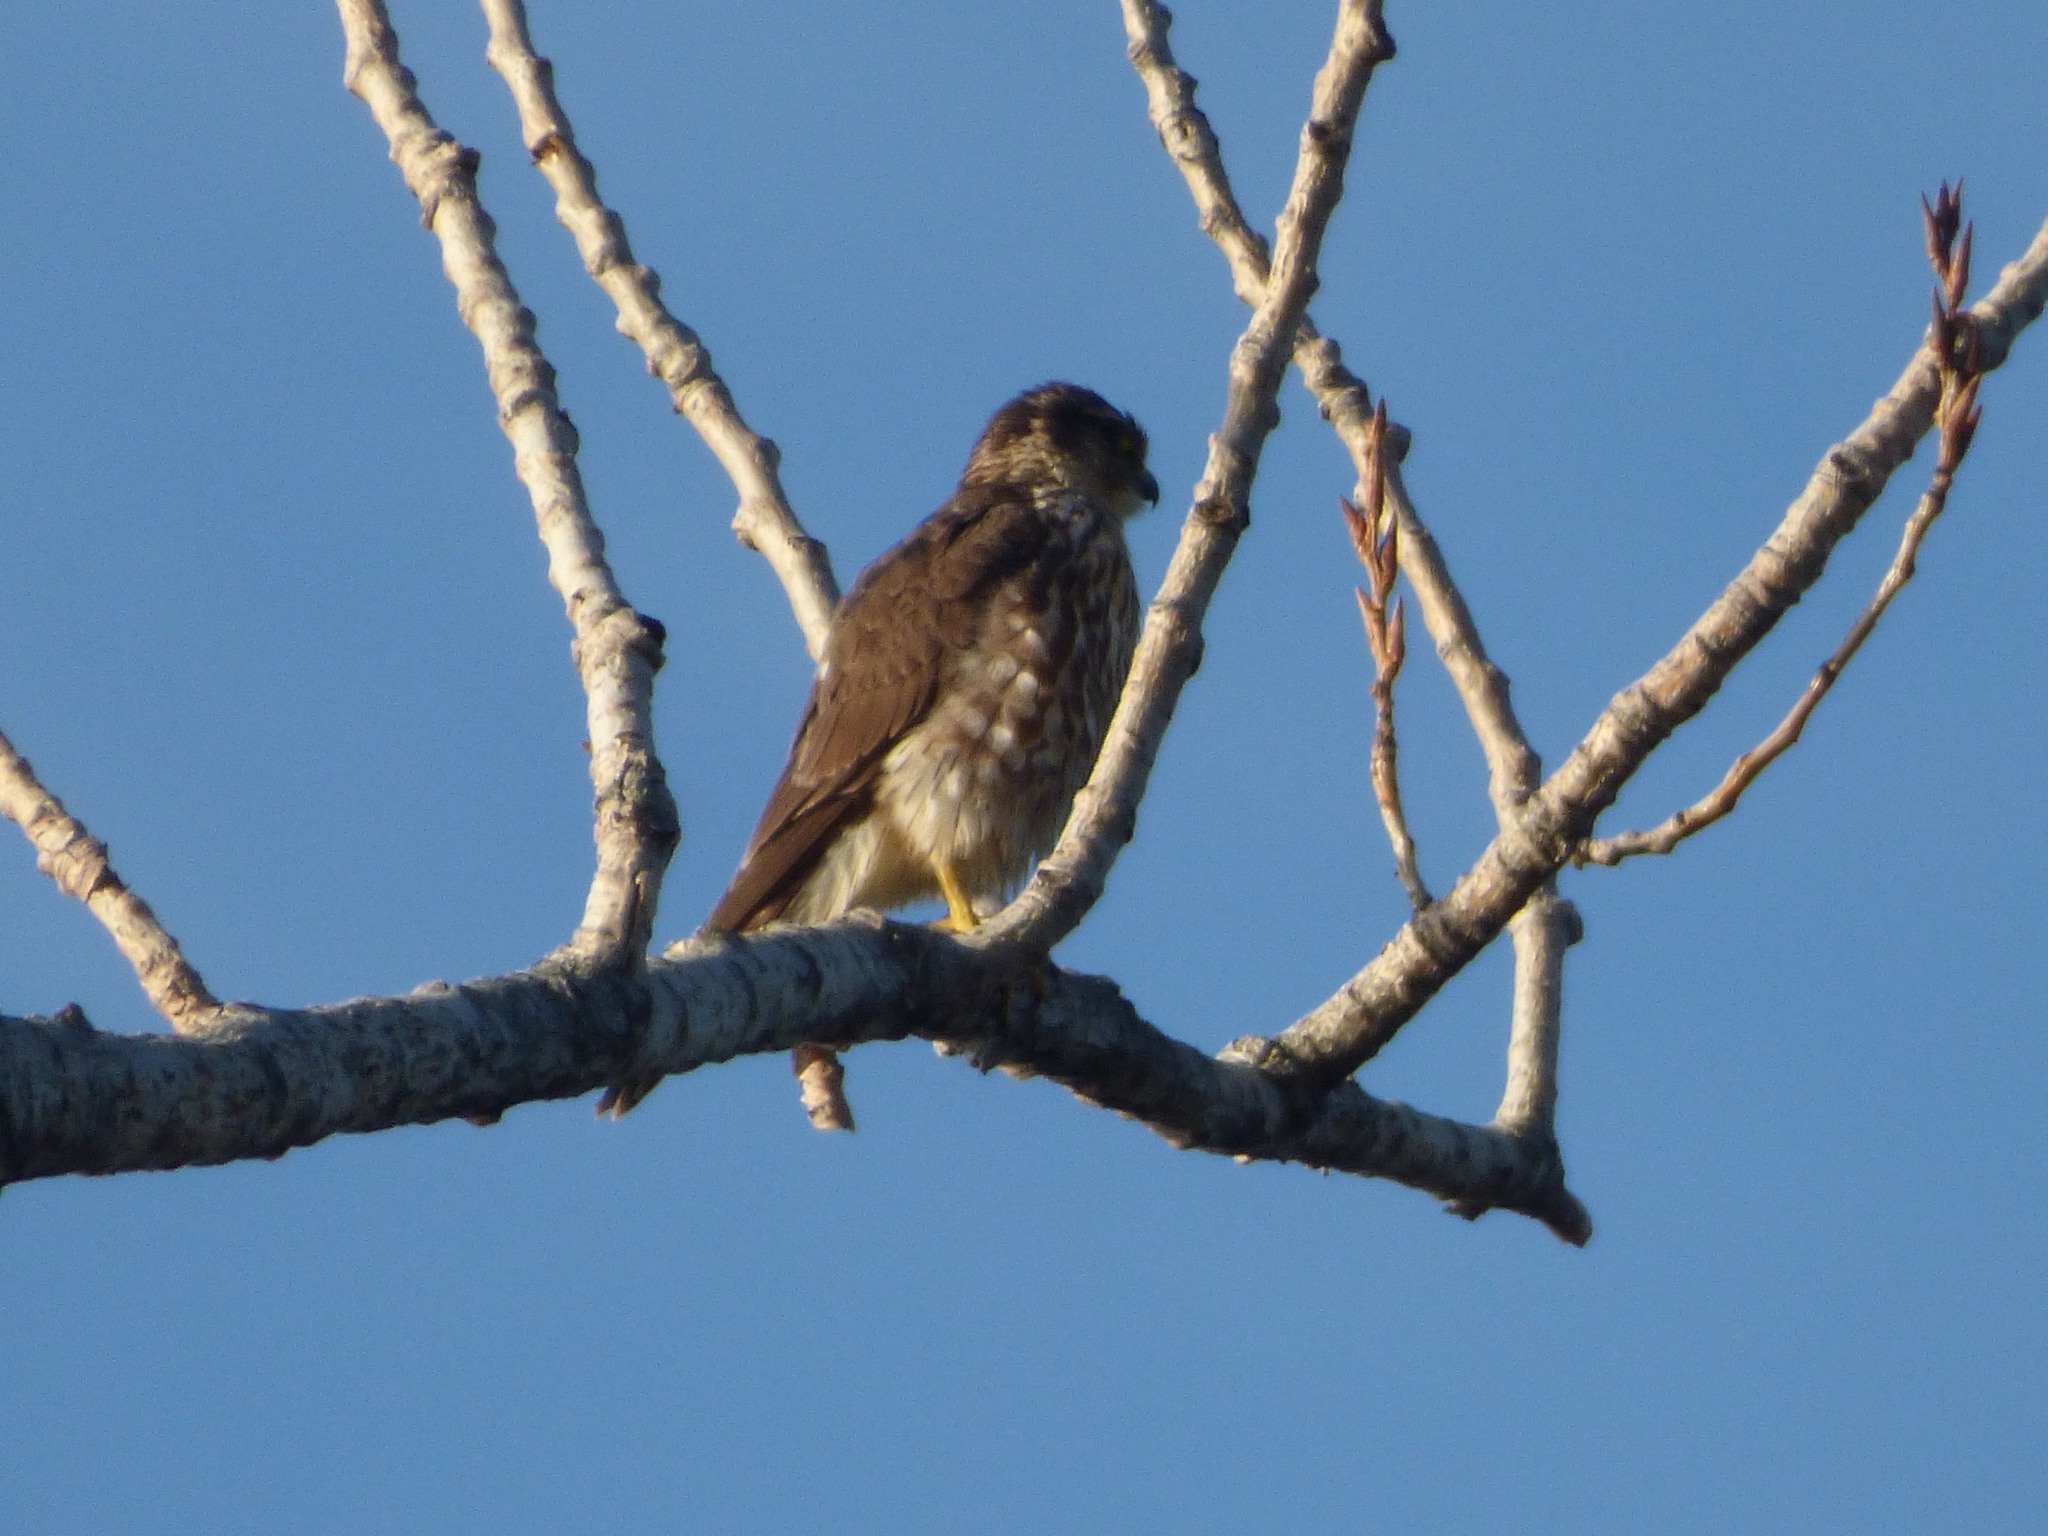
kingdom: Animalia
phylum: Chordata
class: Aves
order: Falconiformes
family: Falconidae
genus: Falco
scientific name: Falco columbarius
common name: Merlin
